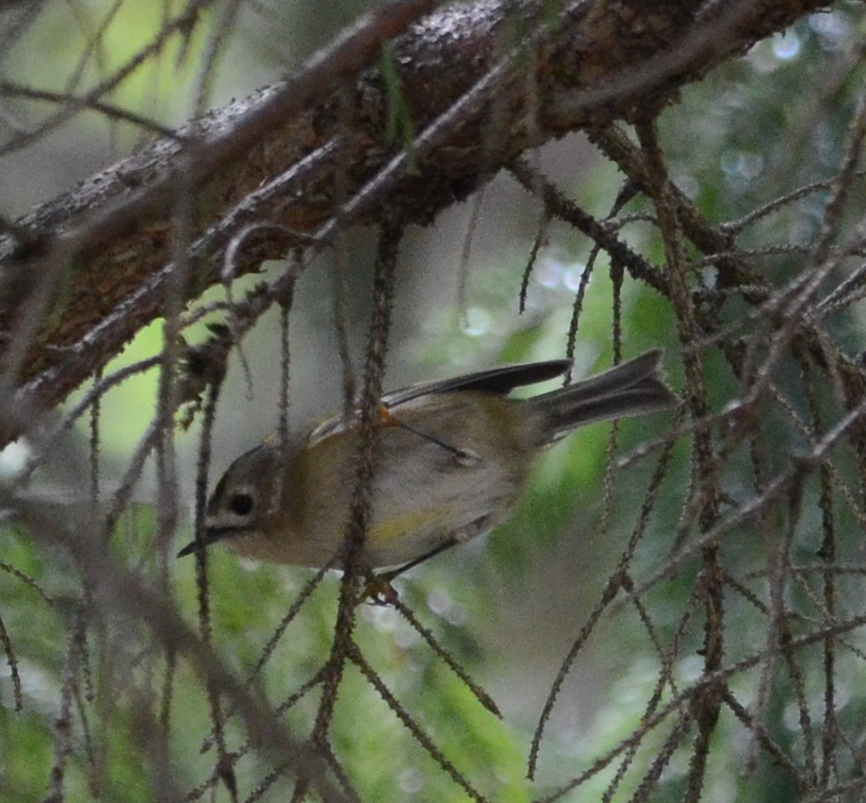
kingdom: Animalia
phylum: Chordata
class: Aves
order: Passeriformes
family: Regulidae
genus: Regulus
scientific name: Regulus regulus
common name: Goldcrest
